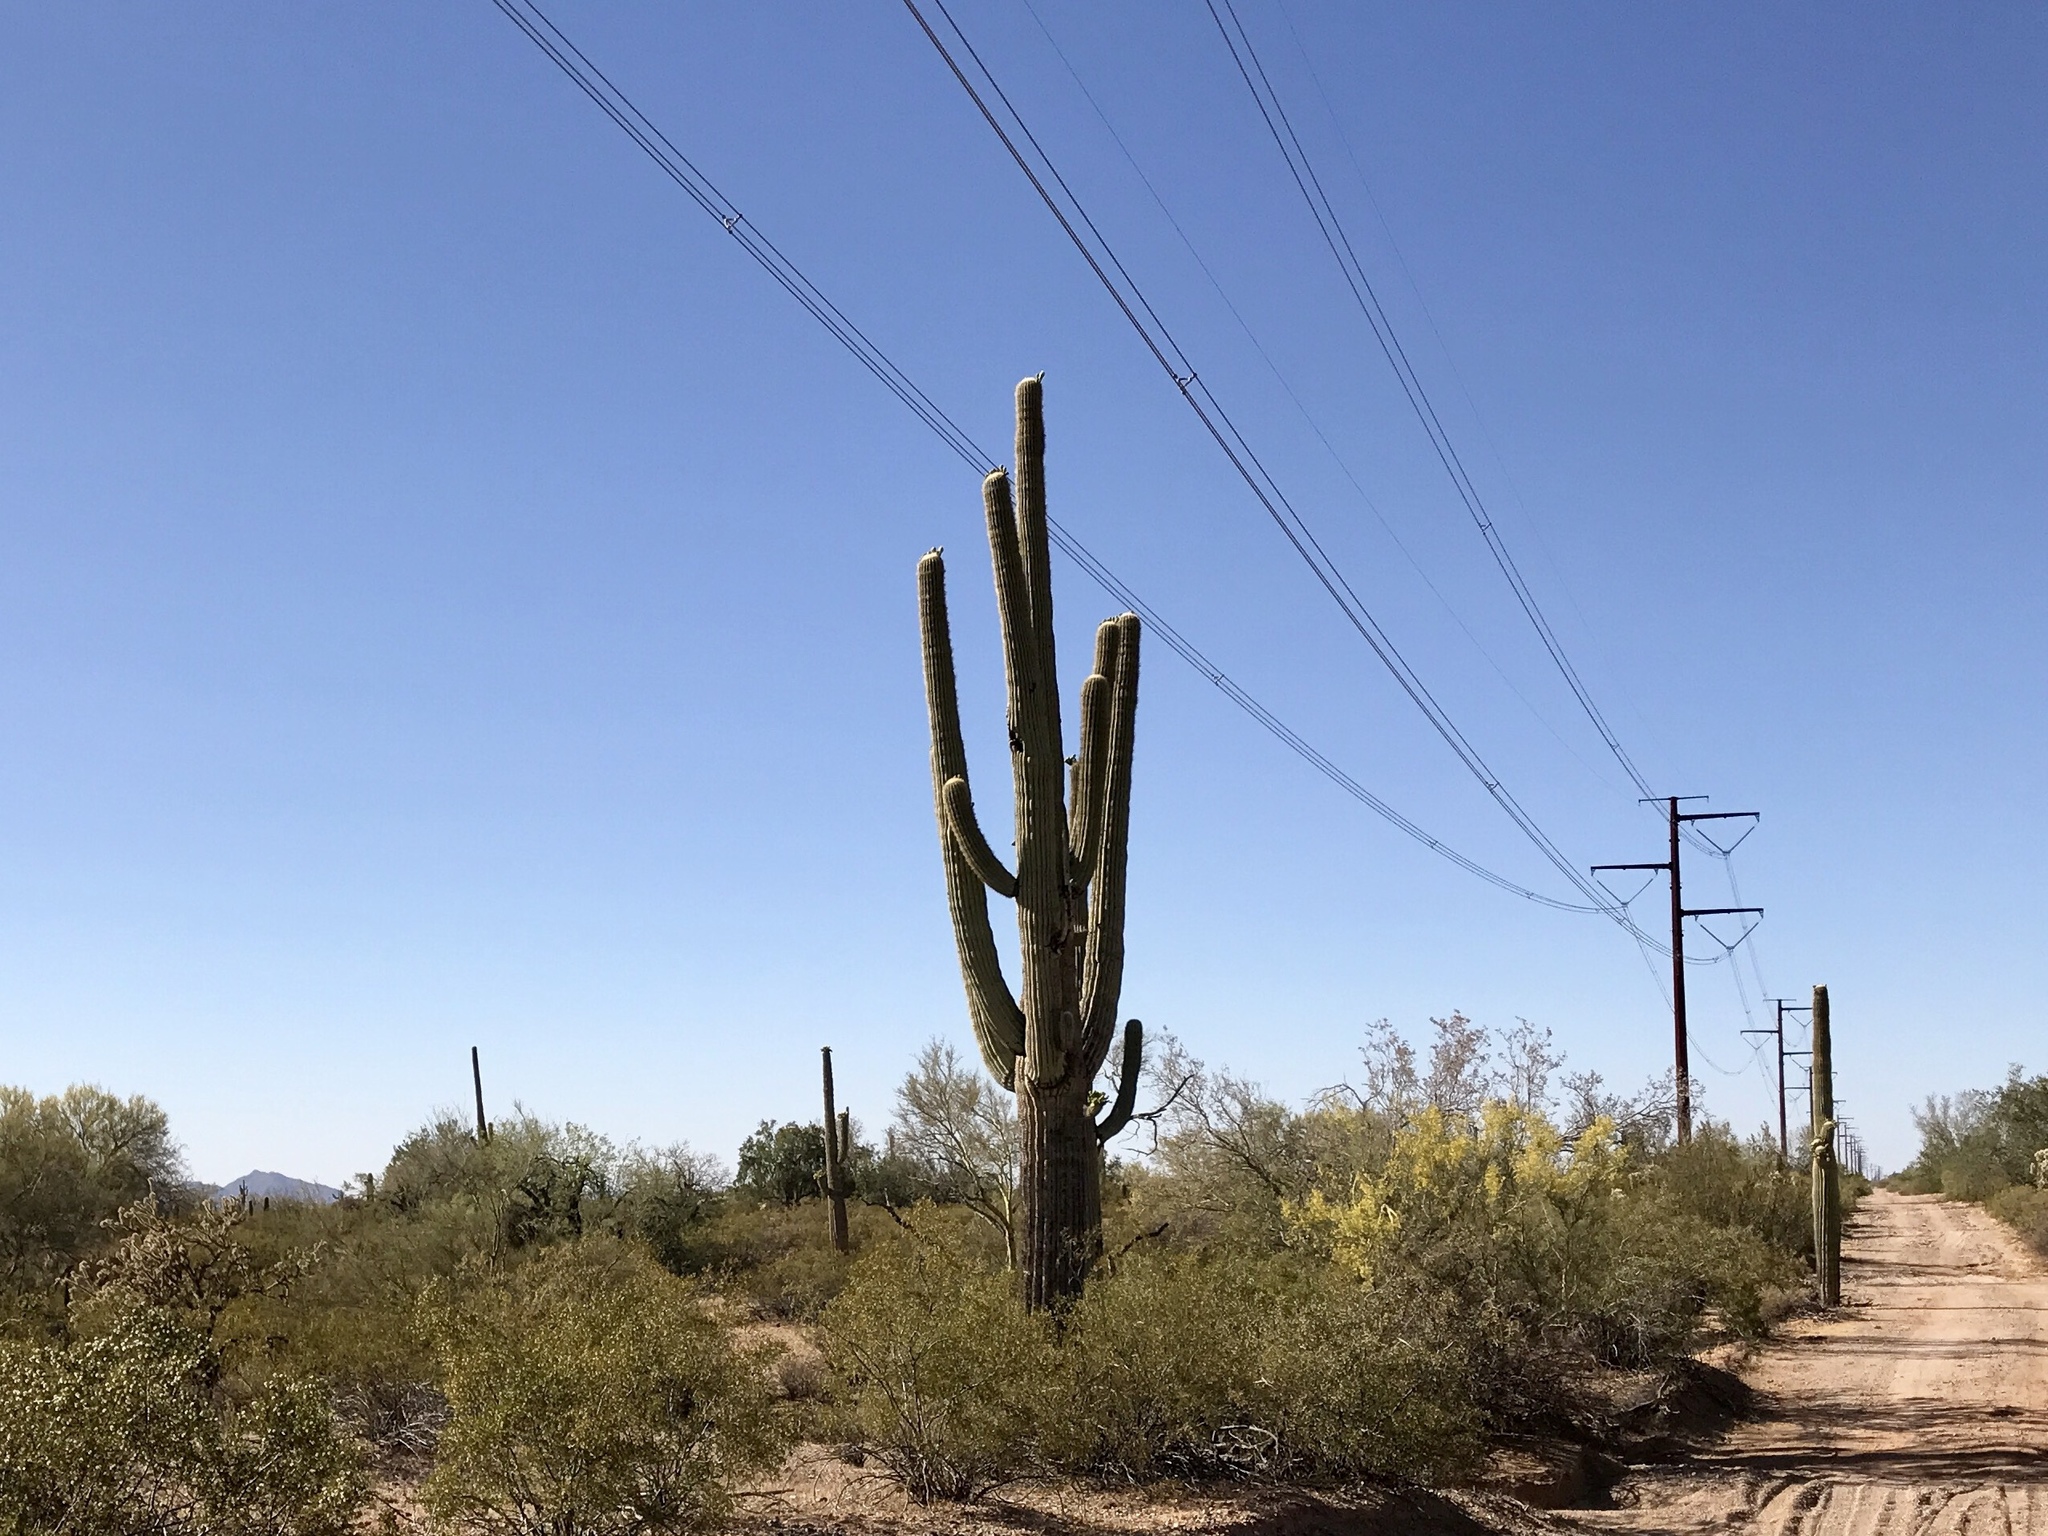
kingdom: Plantae
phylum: Tracheophyta
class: Magnoliopsida
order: Caryophyllales
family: Cactaceae
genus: Carnegiea
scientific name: Carnegiea gigantea
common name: Saguaro
